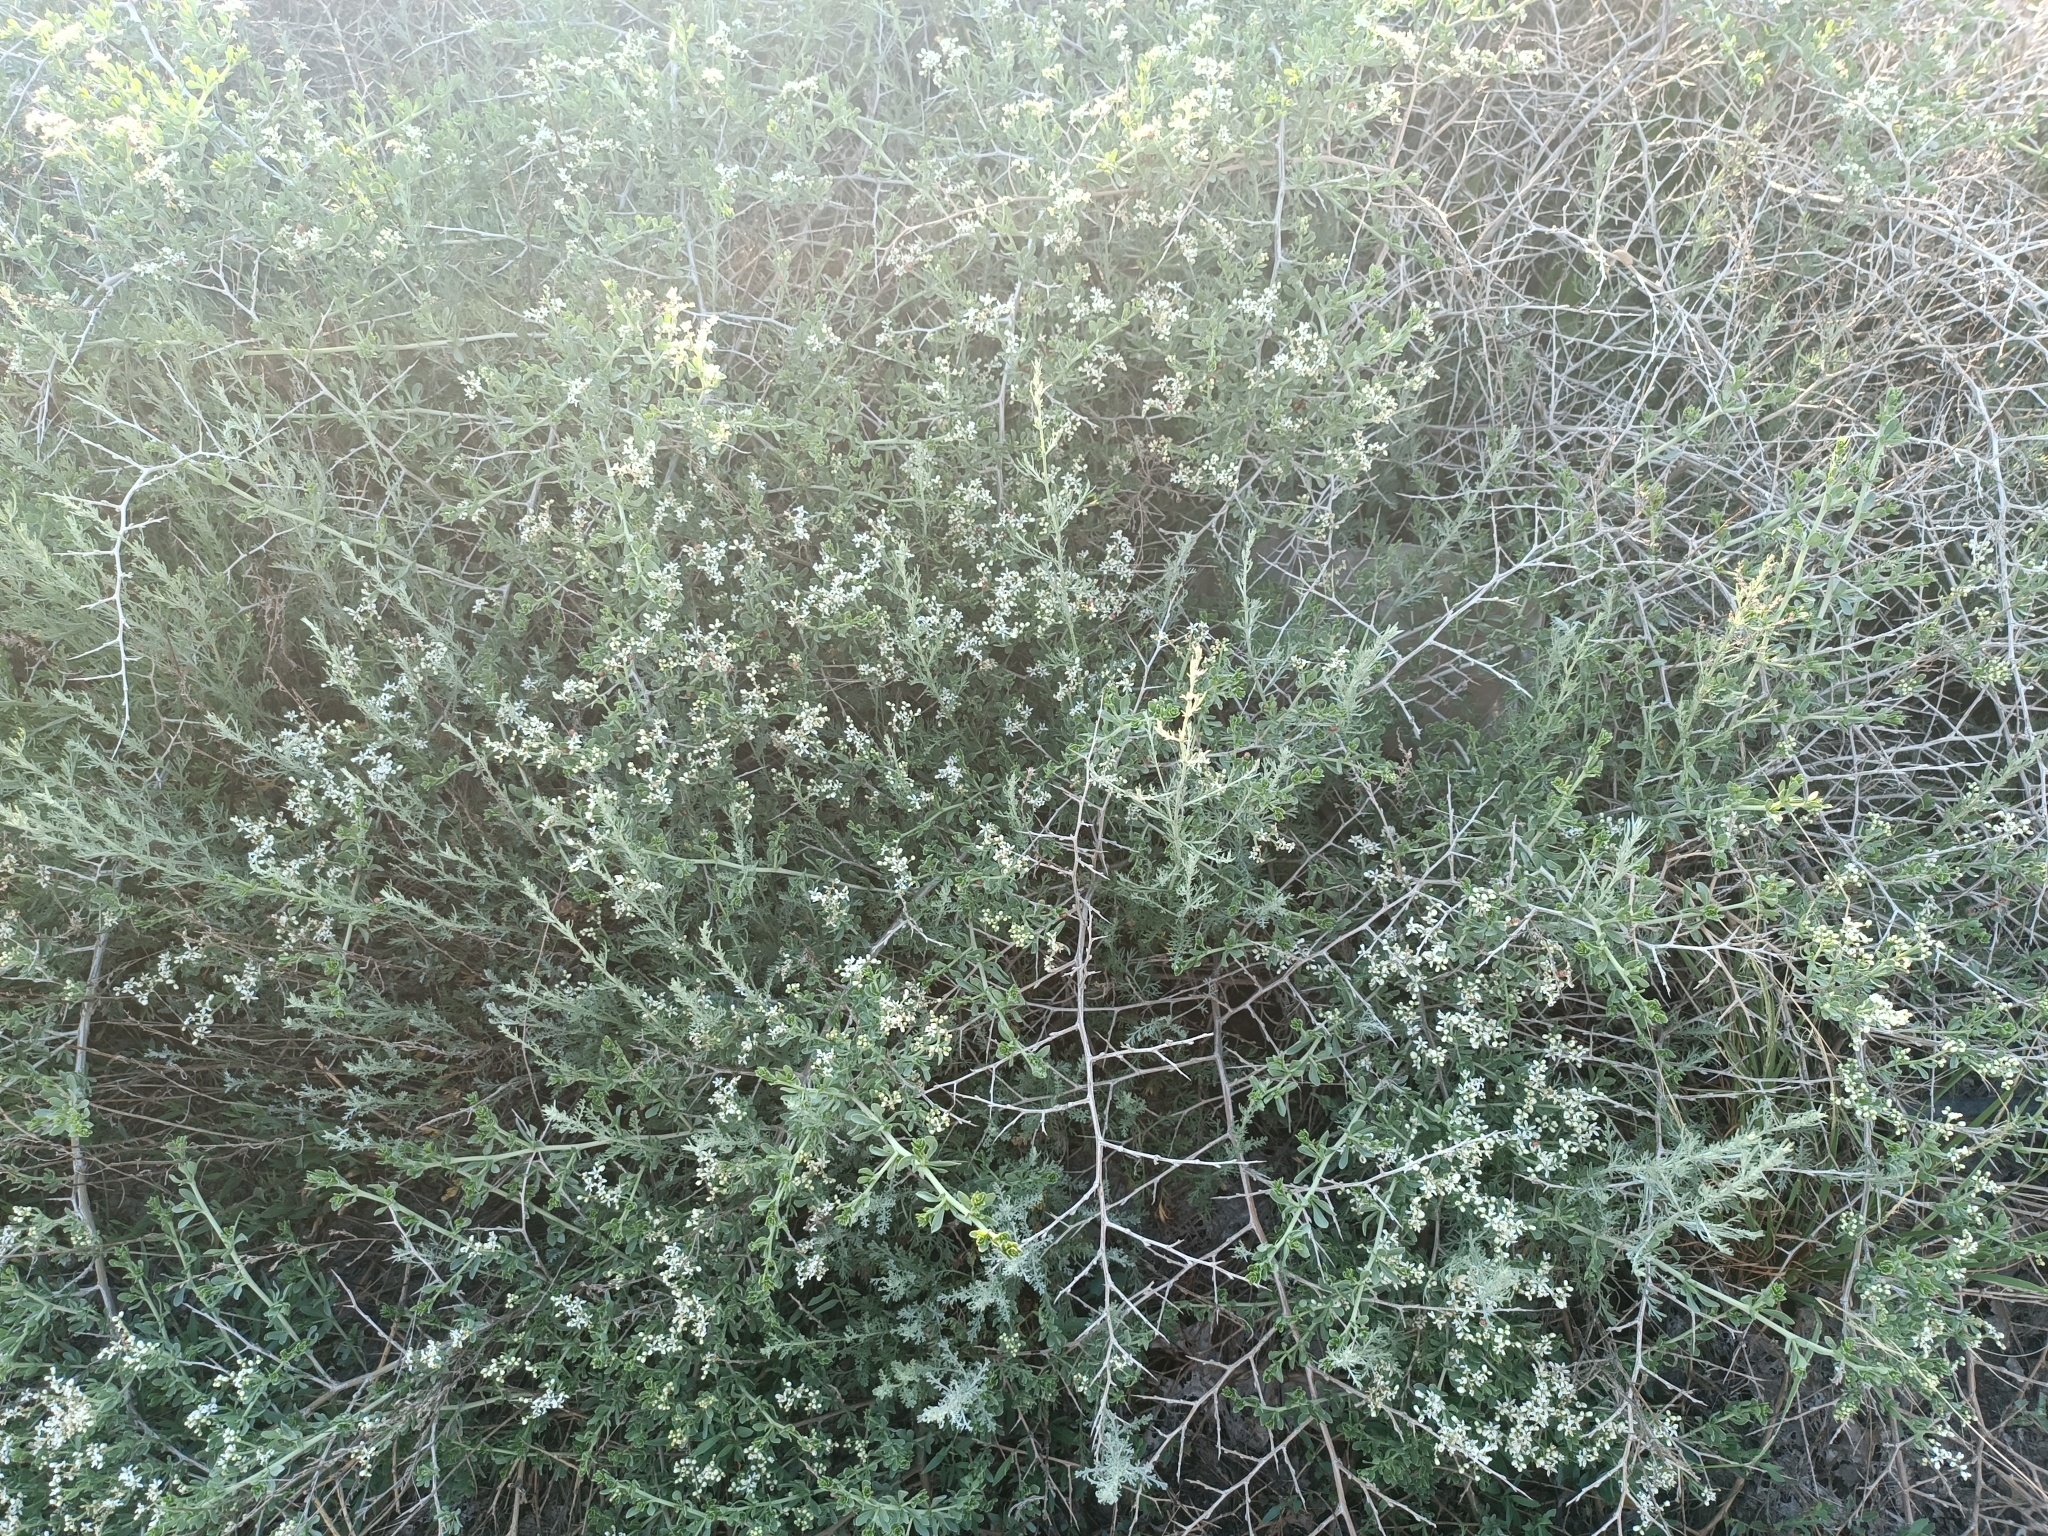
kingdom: Plantae
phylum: Tracheophyta
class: Magnoliopsida
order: Sapindales
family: Nitrariaceae
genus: Nitraria
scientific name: Nitraria sibirica
